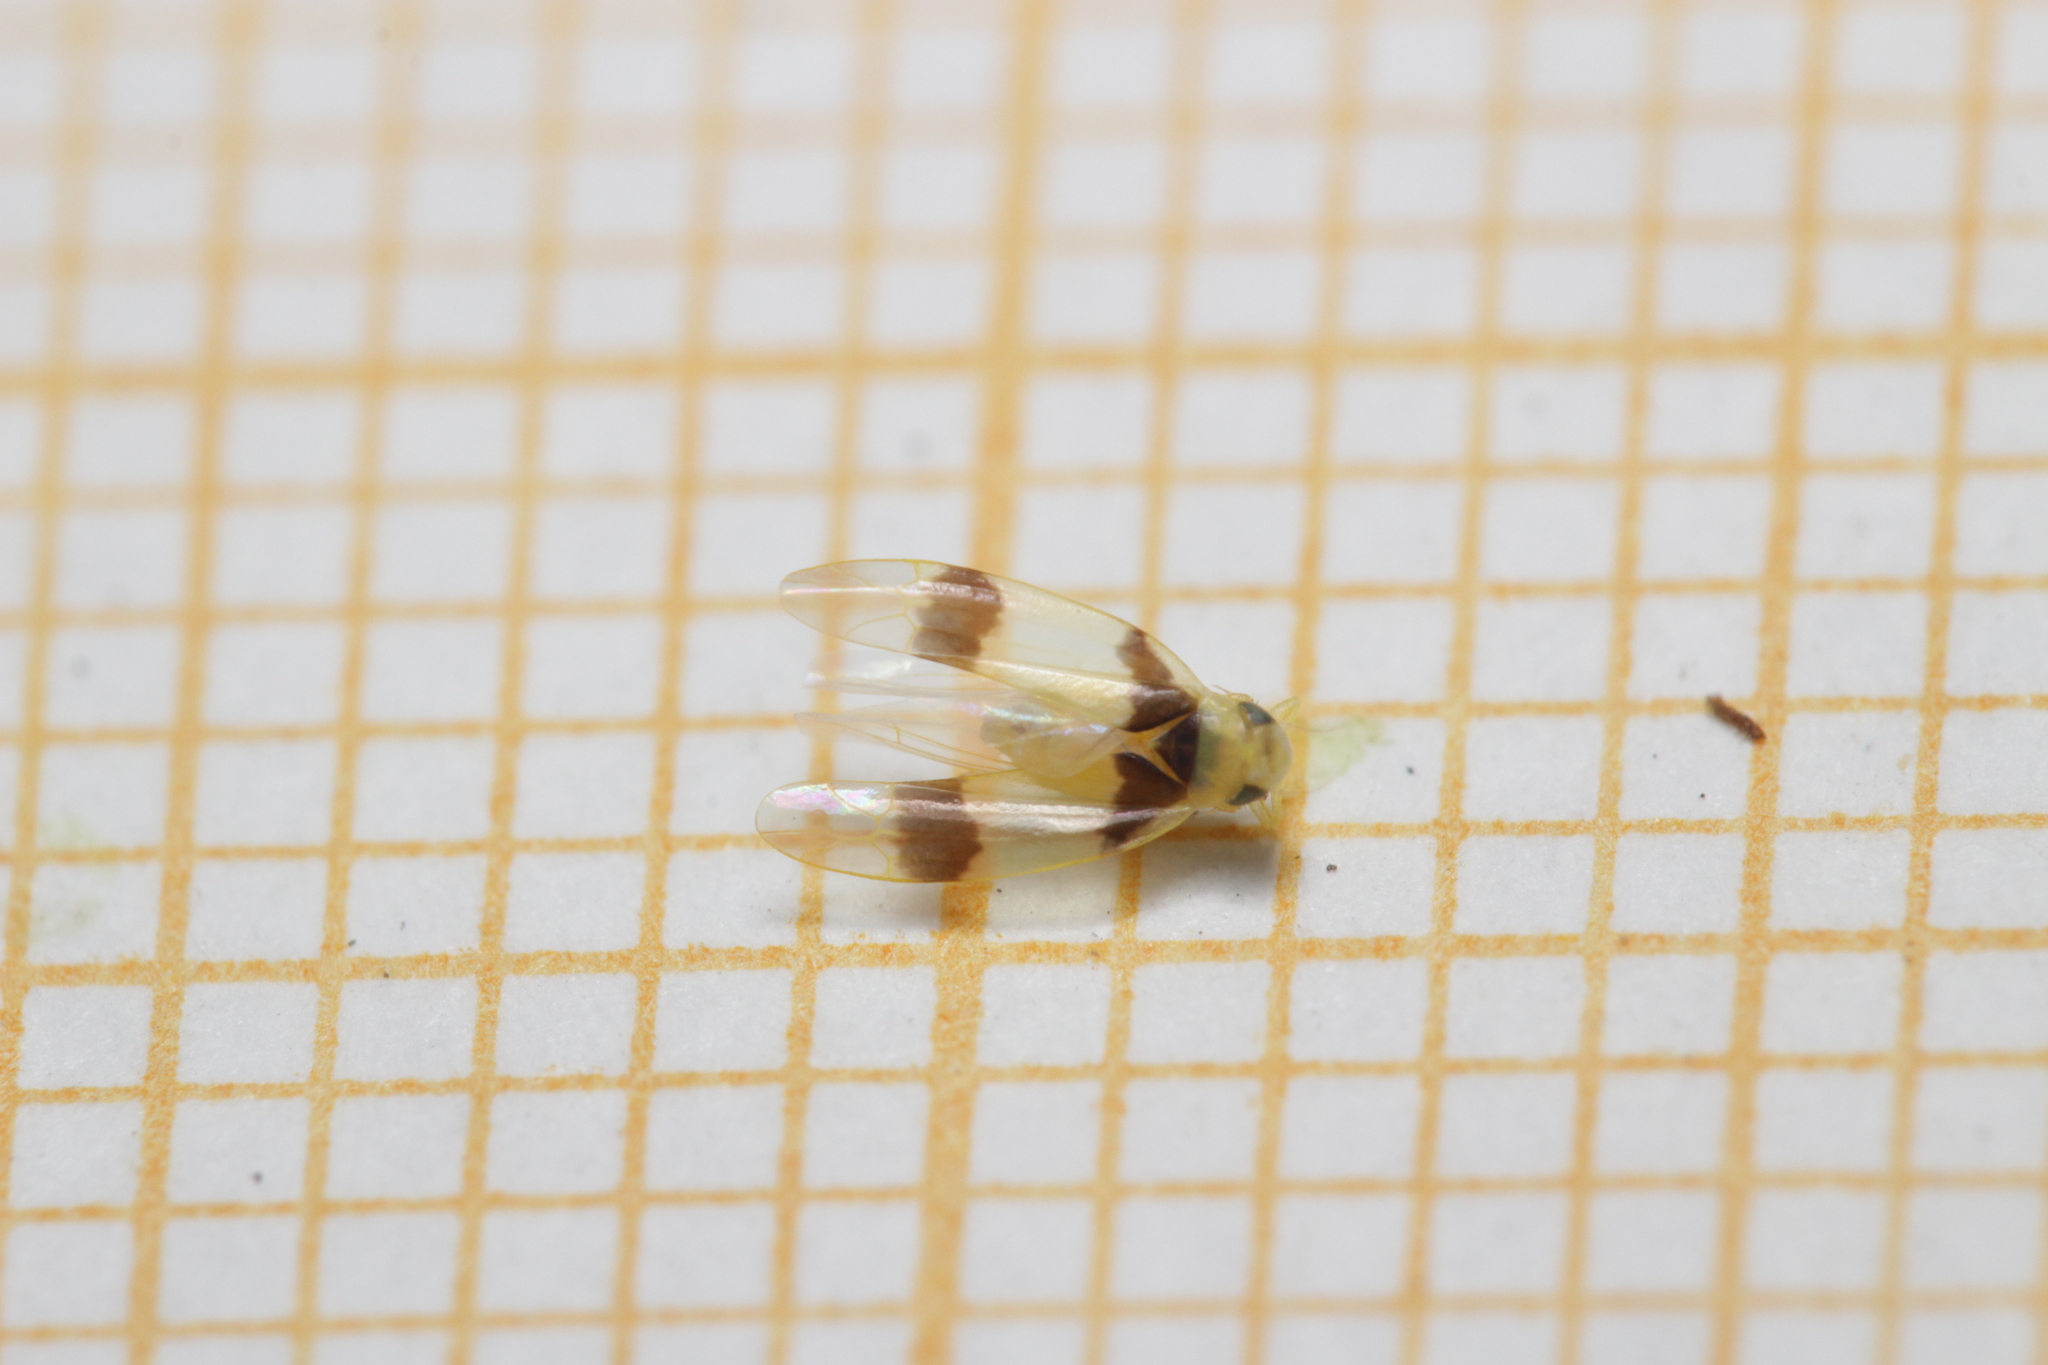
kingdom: Animalia
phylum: Arthropoda
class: Insecta
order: Hemiptera
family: Cicadellidae
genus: Zonocyba
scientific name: Zonocyba bifasciata
